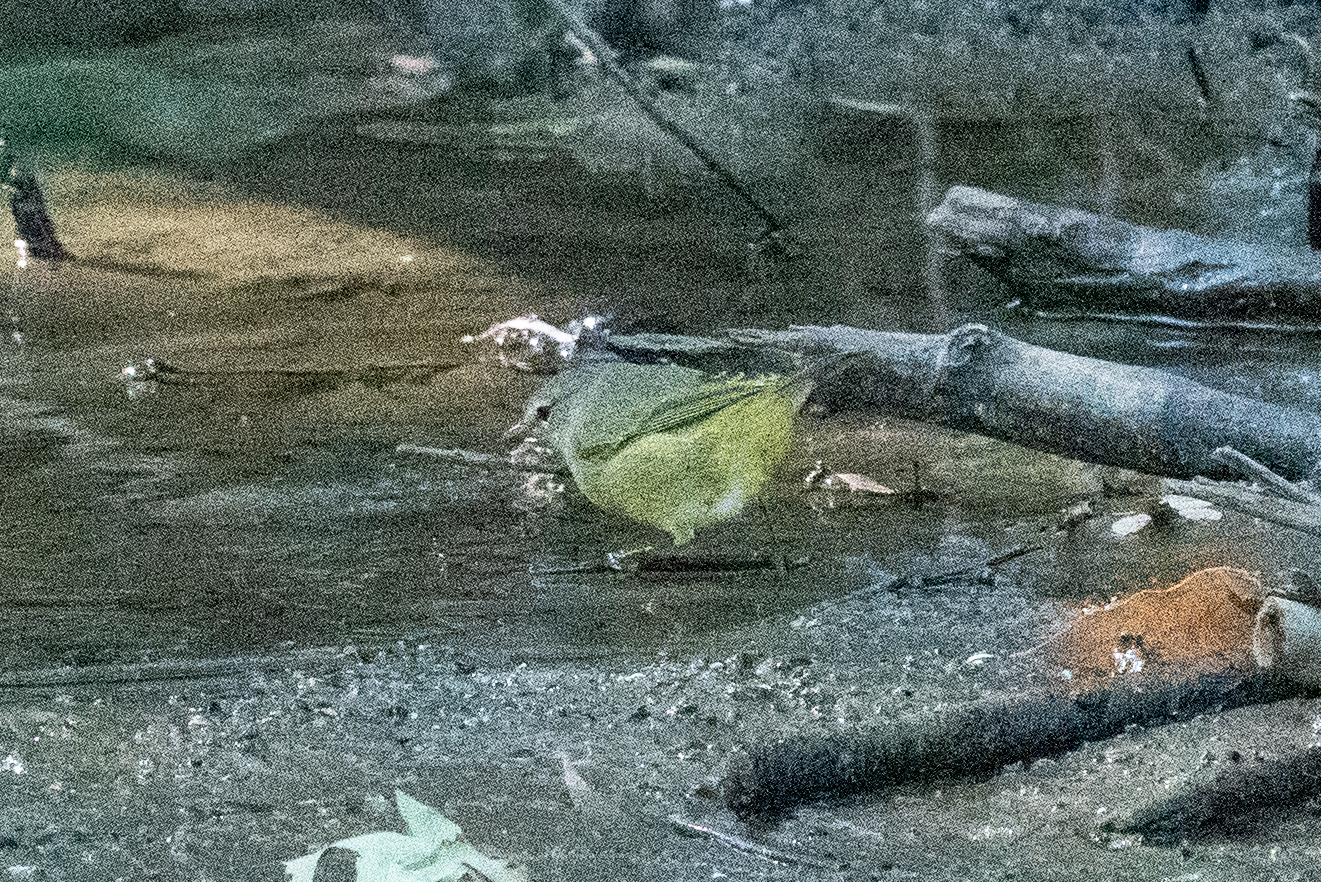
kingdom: Animalia
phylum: Chordata
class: Aves
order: Passeriformes
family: Parulidae
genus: Leiothlypis
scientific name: Leiothlypis celata
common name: Orange-crowned warbler
